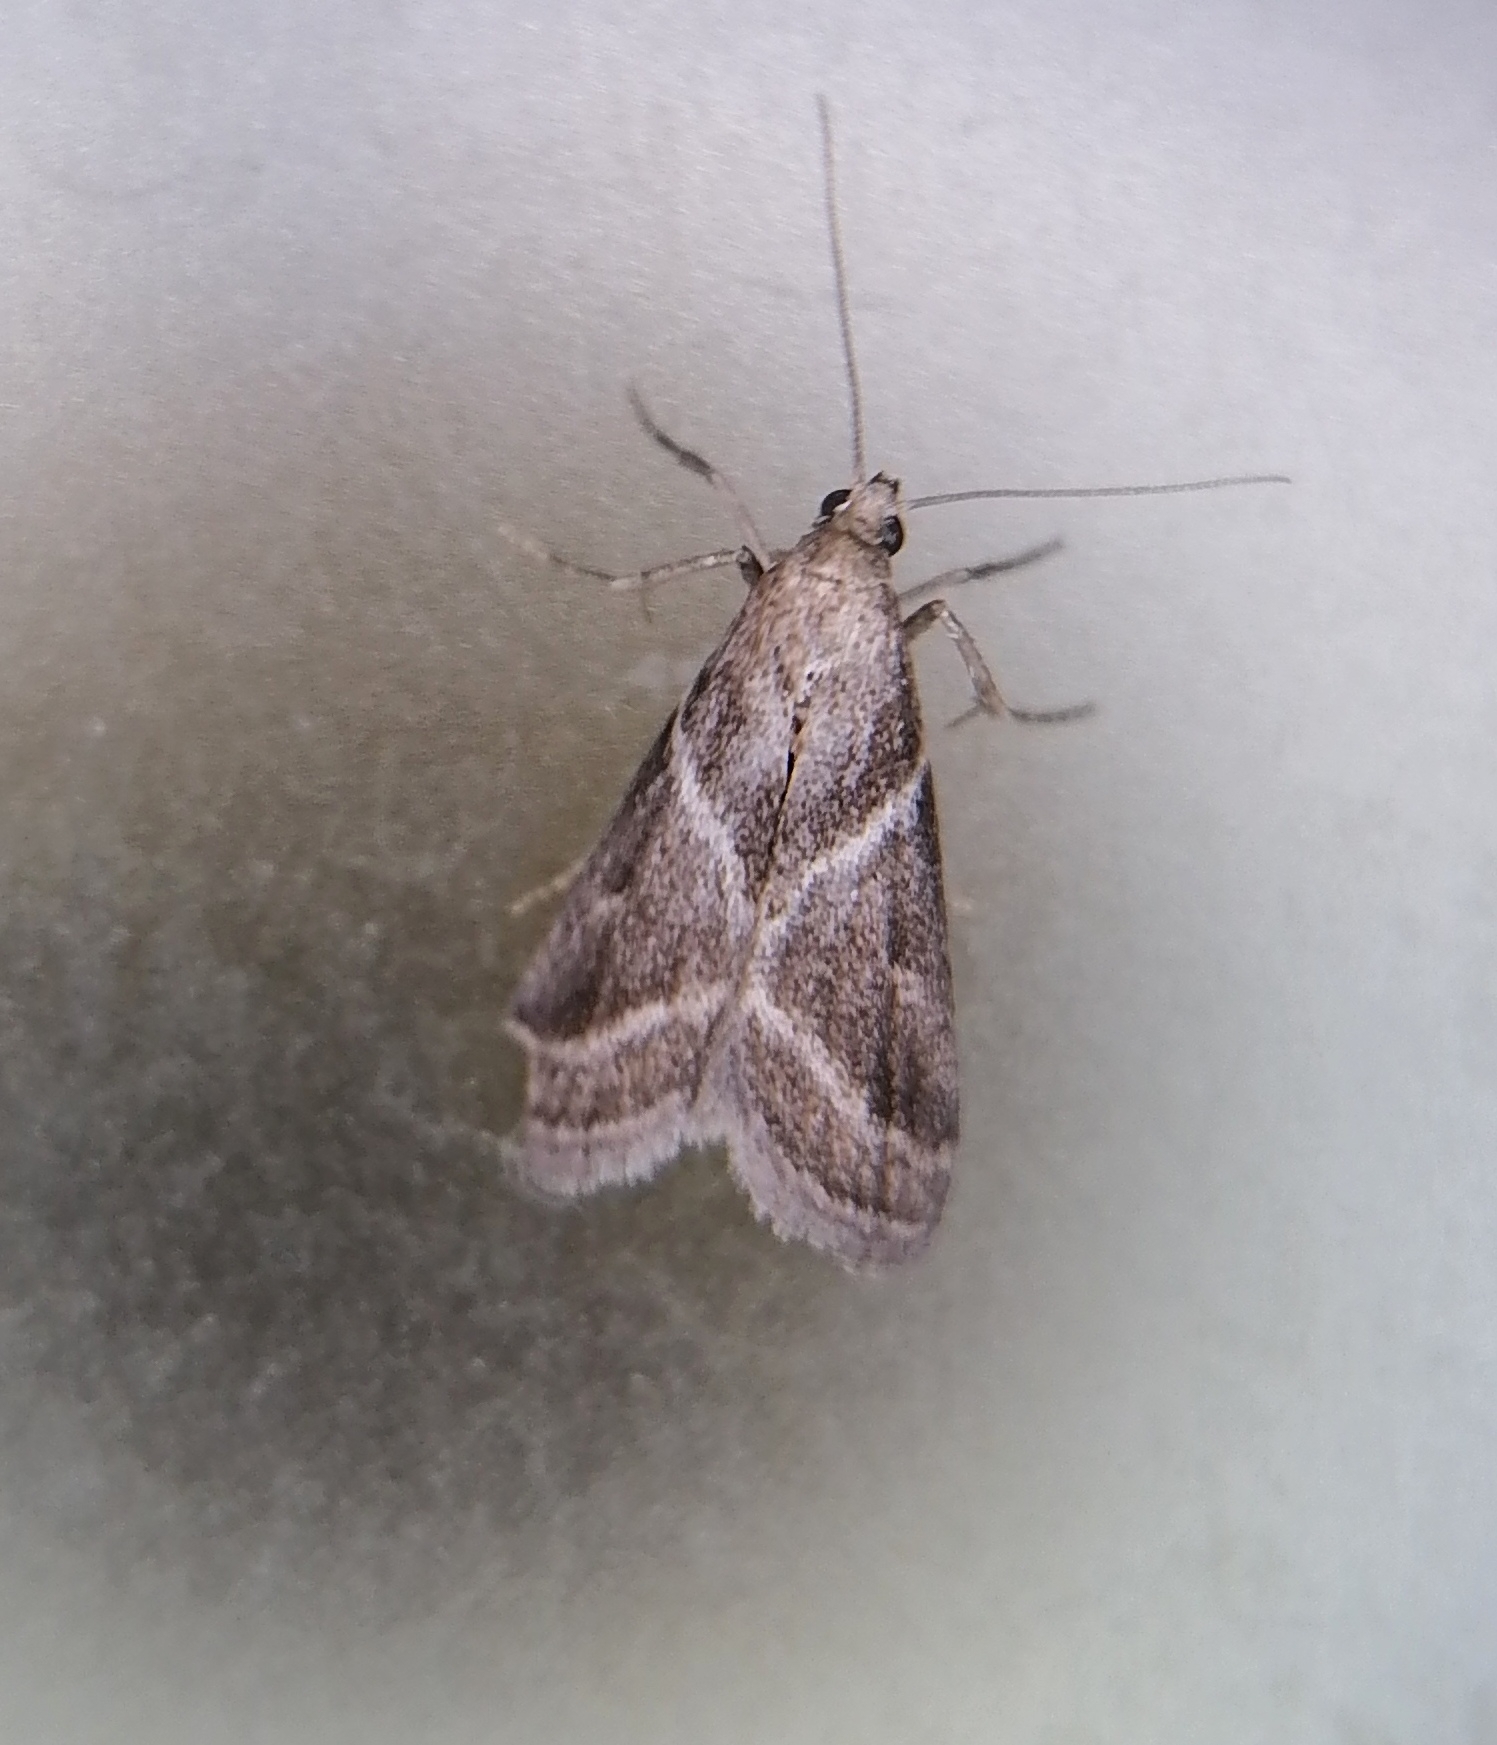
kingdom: Animalia
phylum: Arthropoda
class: Insecta
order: Lepidoptera
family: Pyralidae
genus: Nyctegretis
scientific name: Nyctegretis triangulella
